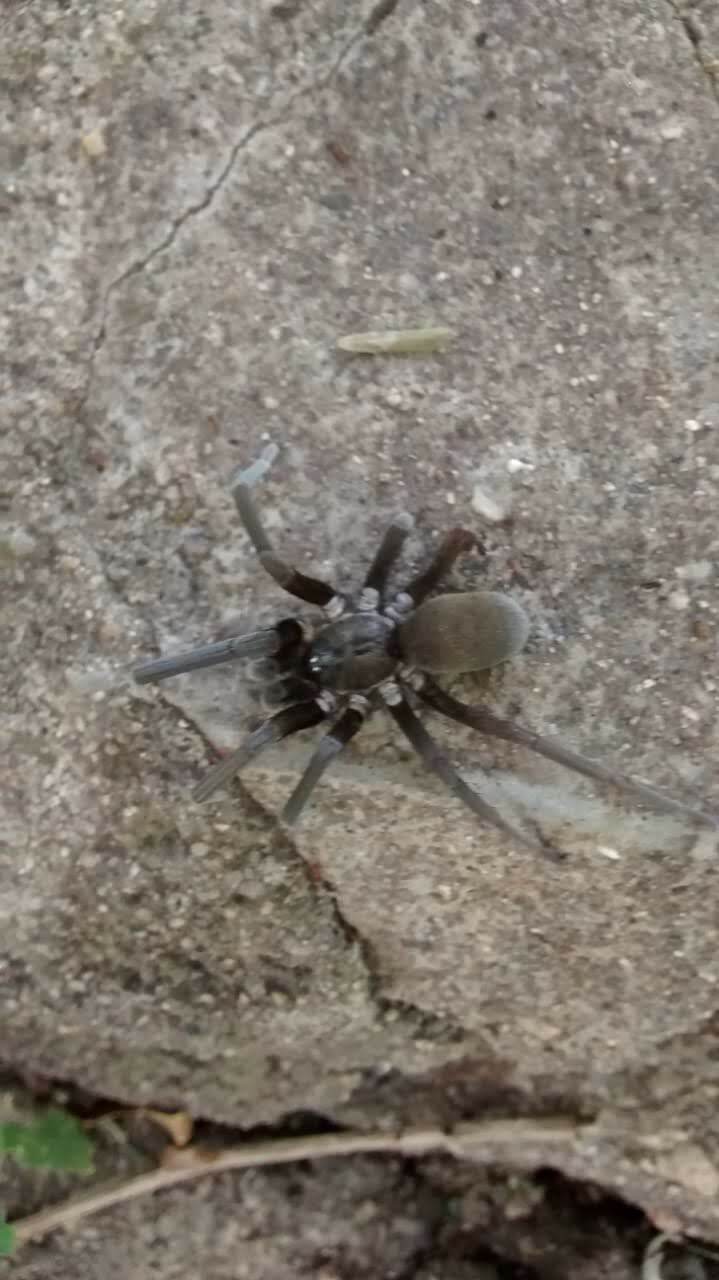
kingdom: Animalia
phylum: Arthropoda
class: Arachnida
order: Araneae
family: Filistatidae
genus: Kukulcania
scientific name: Kukulcania hibernalis
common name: Crevice weaver
